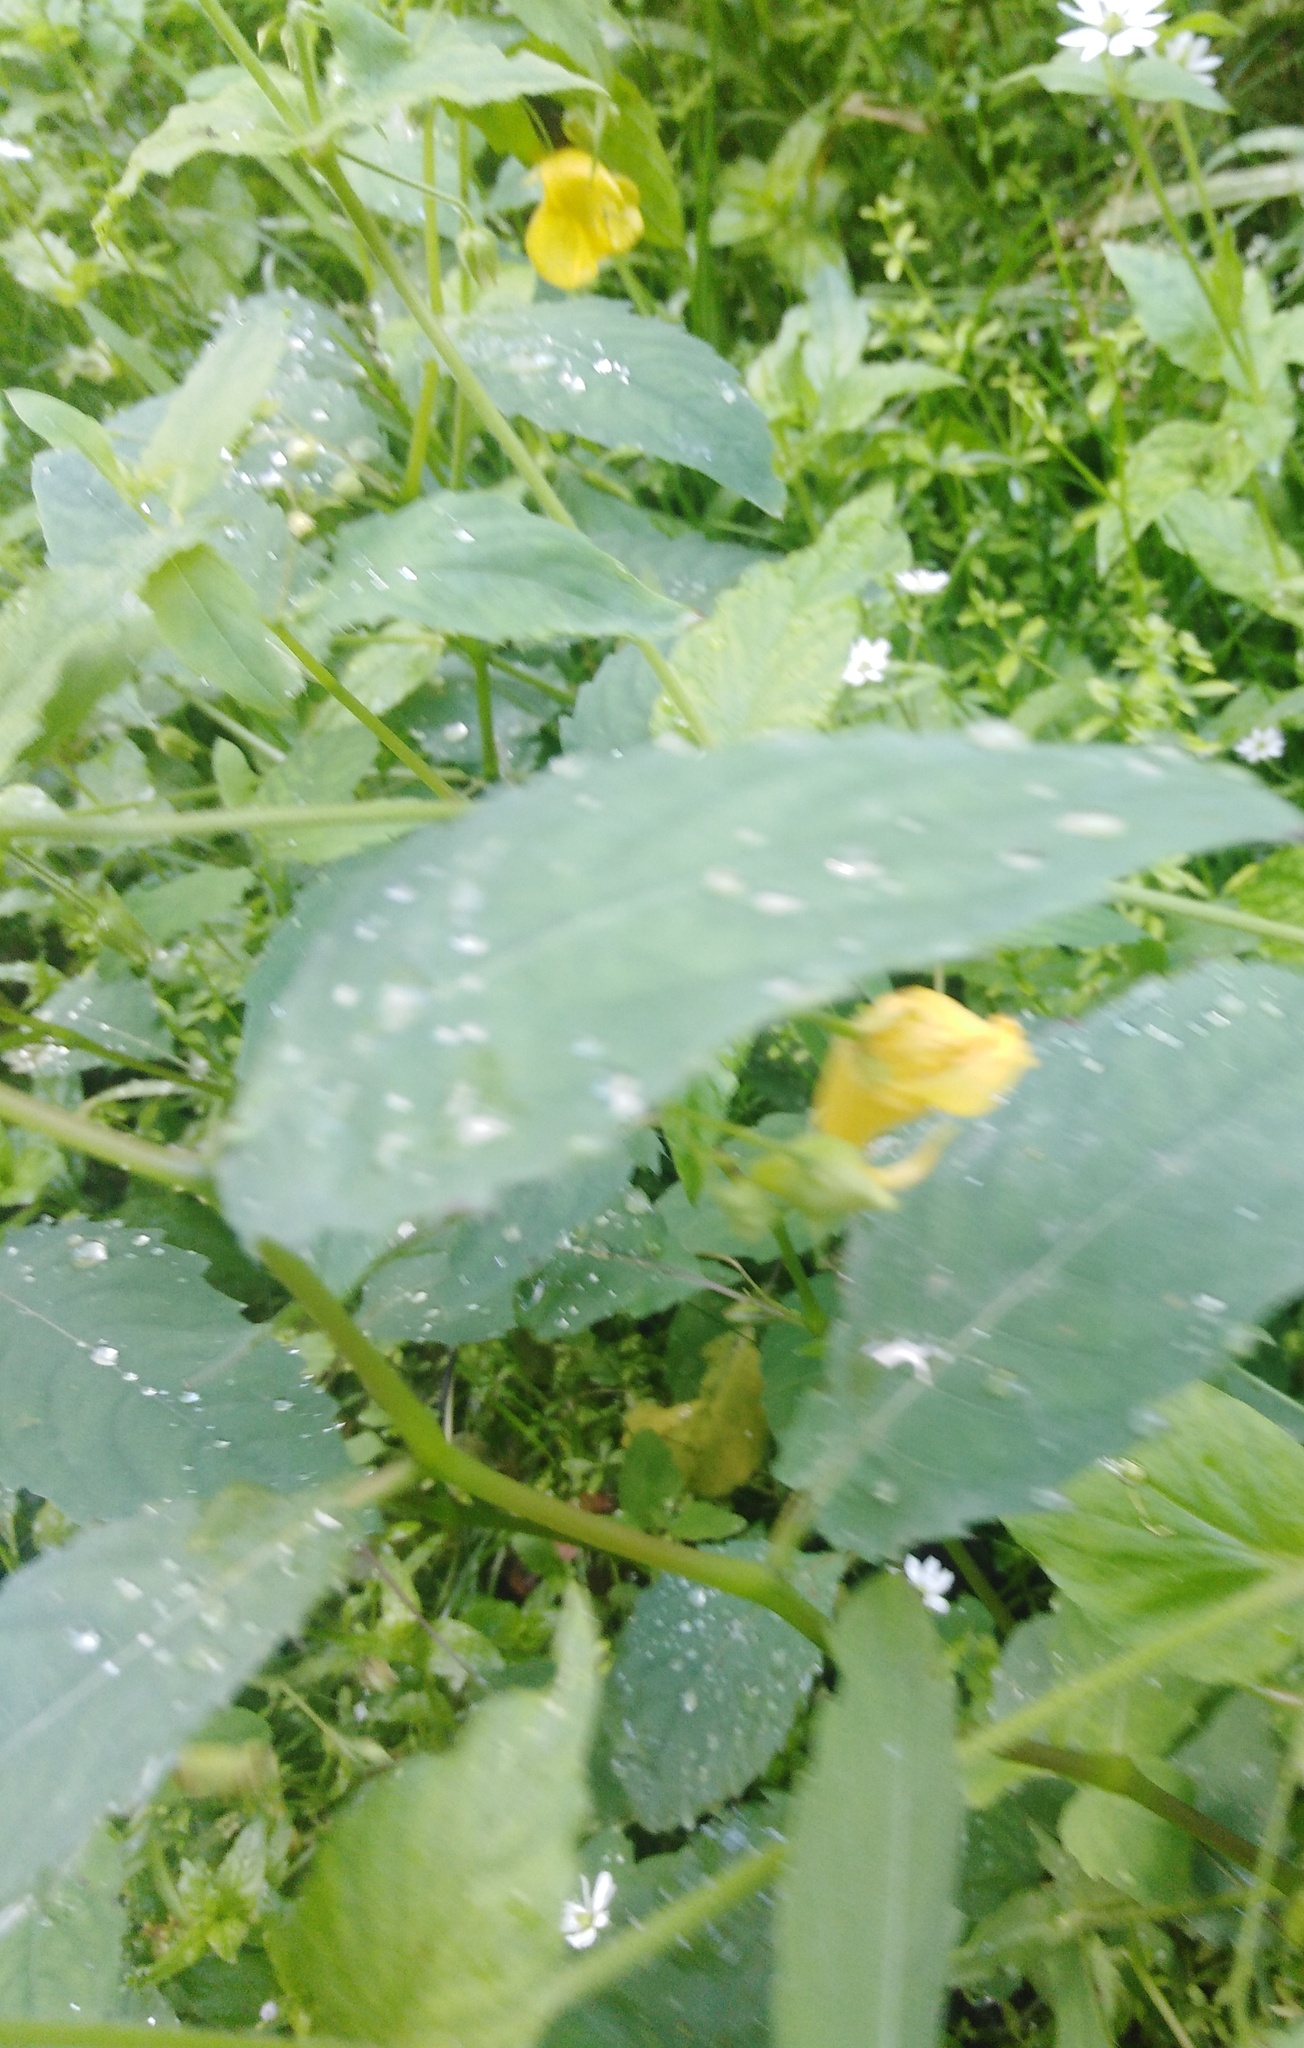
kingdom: Plantae
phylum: Tracheophyta
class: Magnoliopsida
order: Ericales
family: Balsaminaceae
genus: Impatiens
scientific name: Impatiens noli-tangere
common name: Touch-me-not balsam
